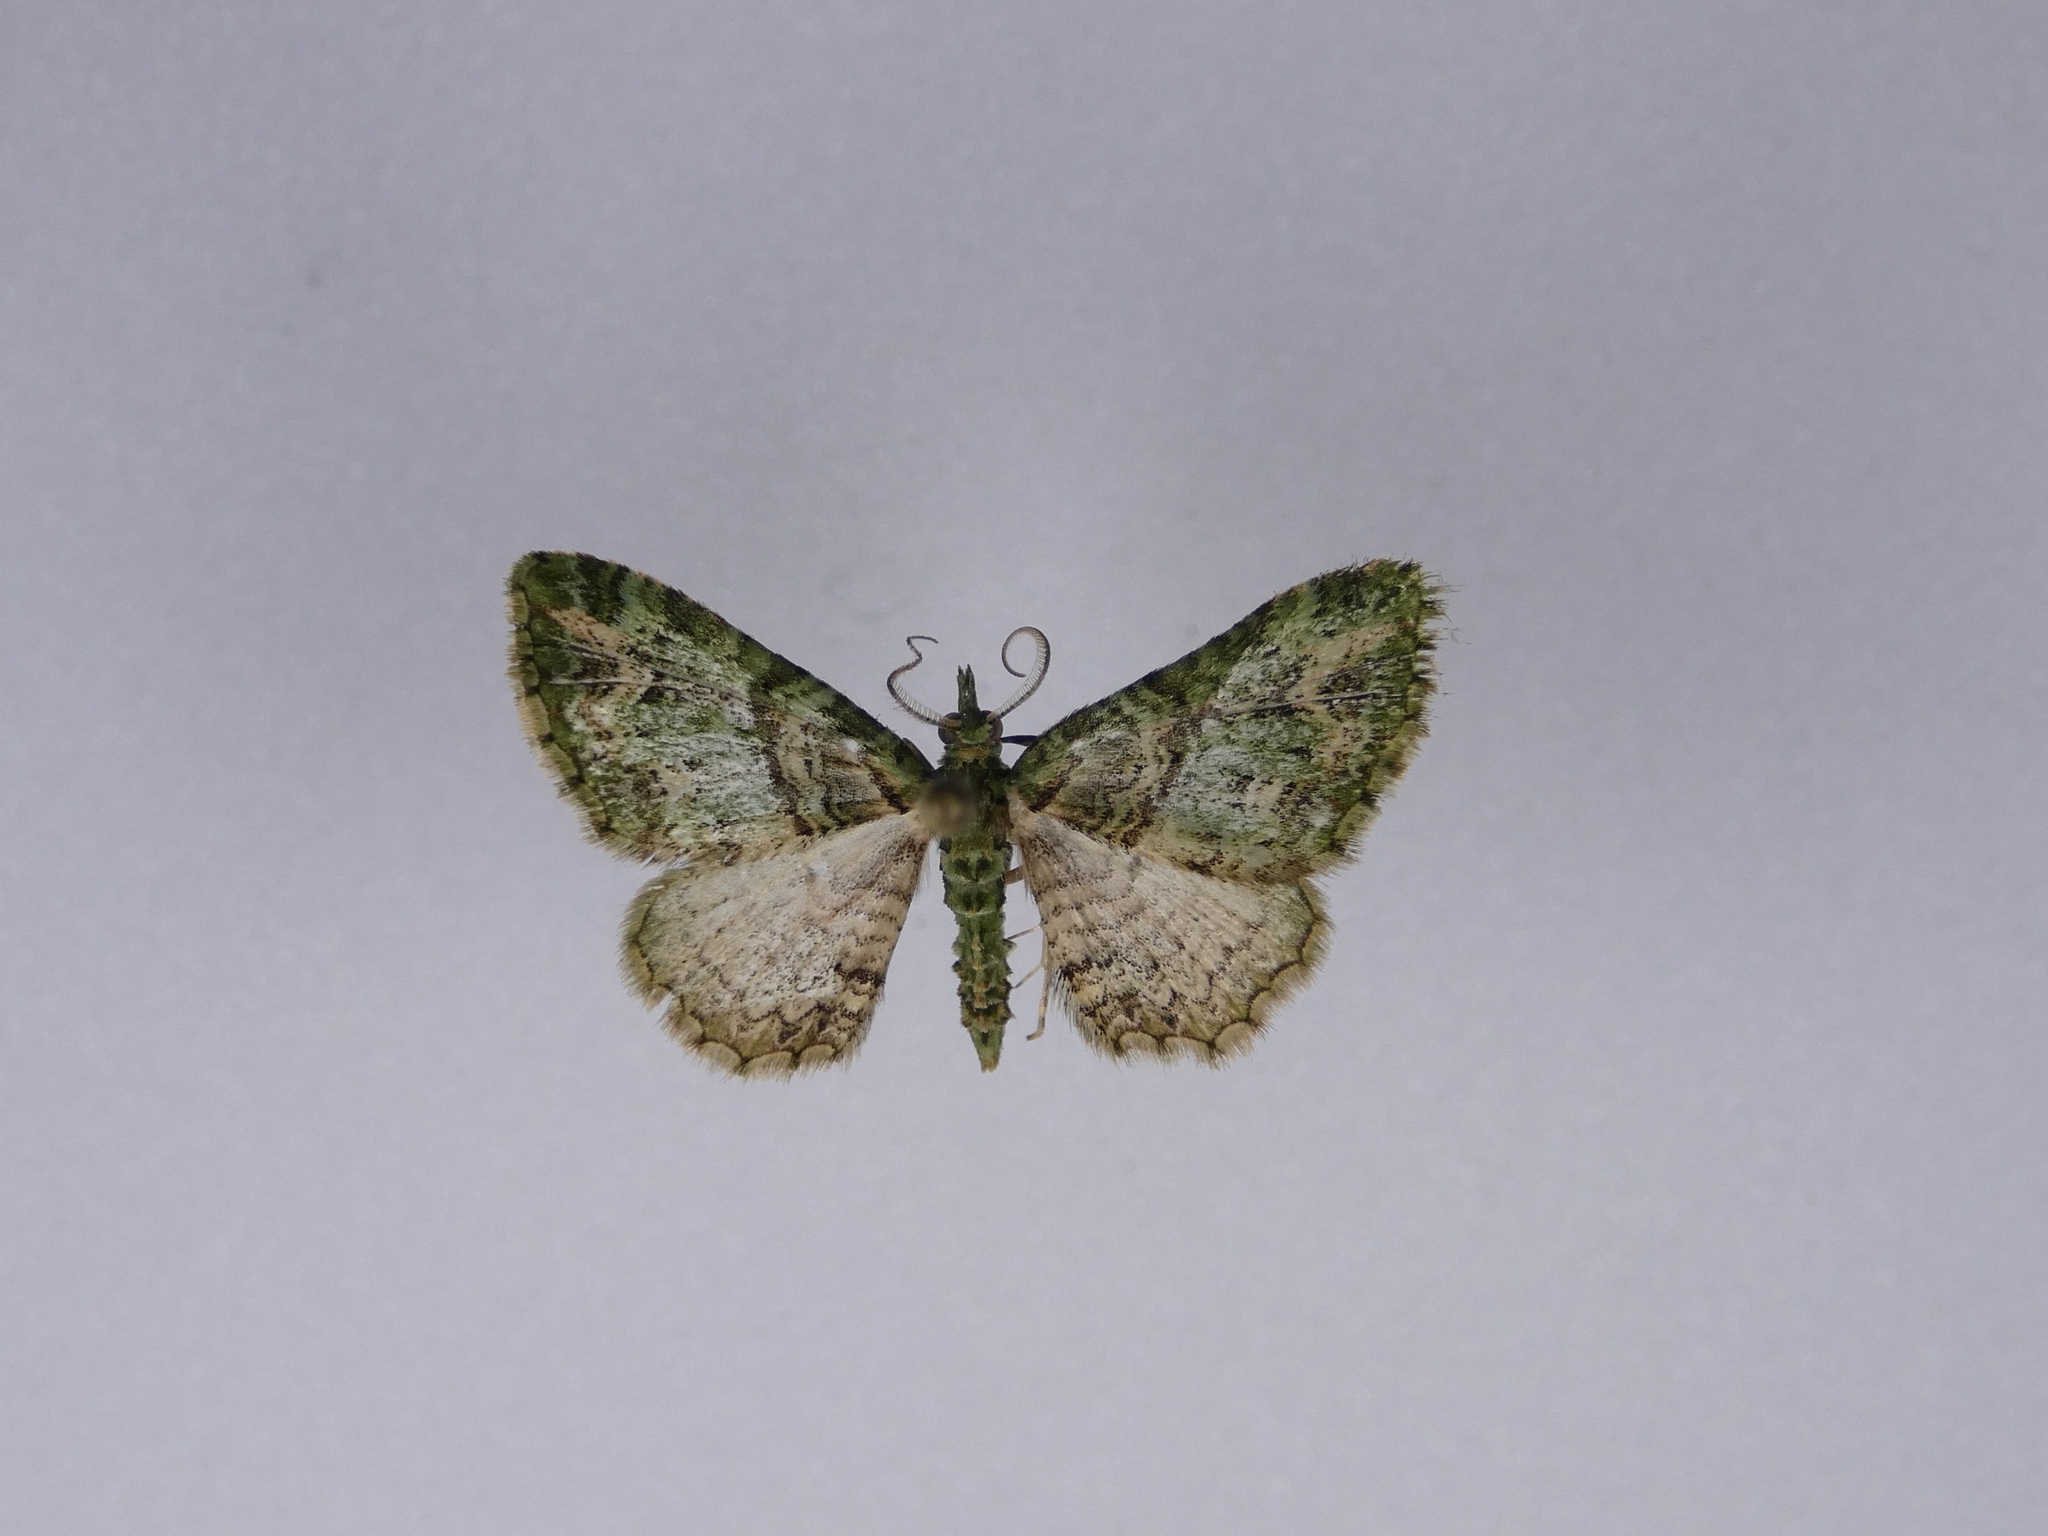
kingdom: Animalia
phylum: Arthropoda
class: Insecta
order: Lepidoptera
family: Geometridae
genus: Pasiphila
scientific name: Pasiphila muscosata
